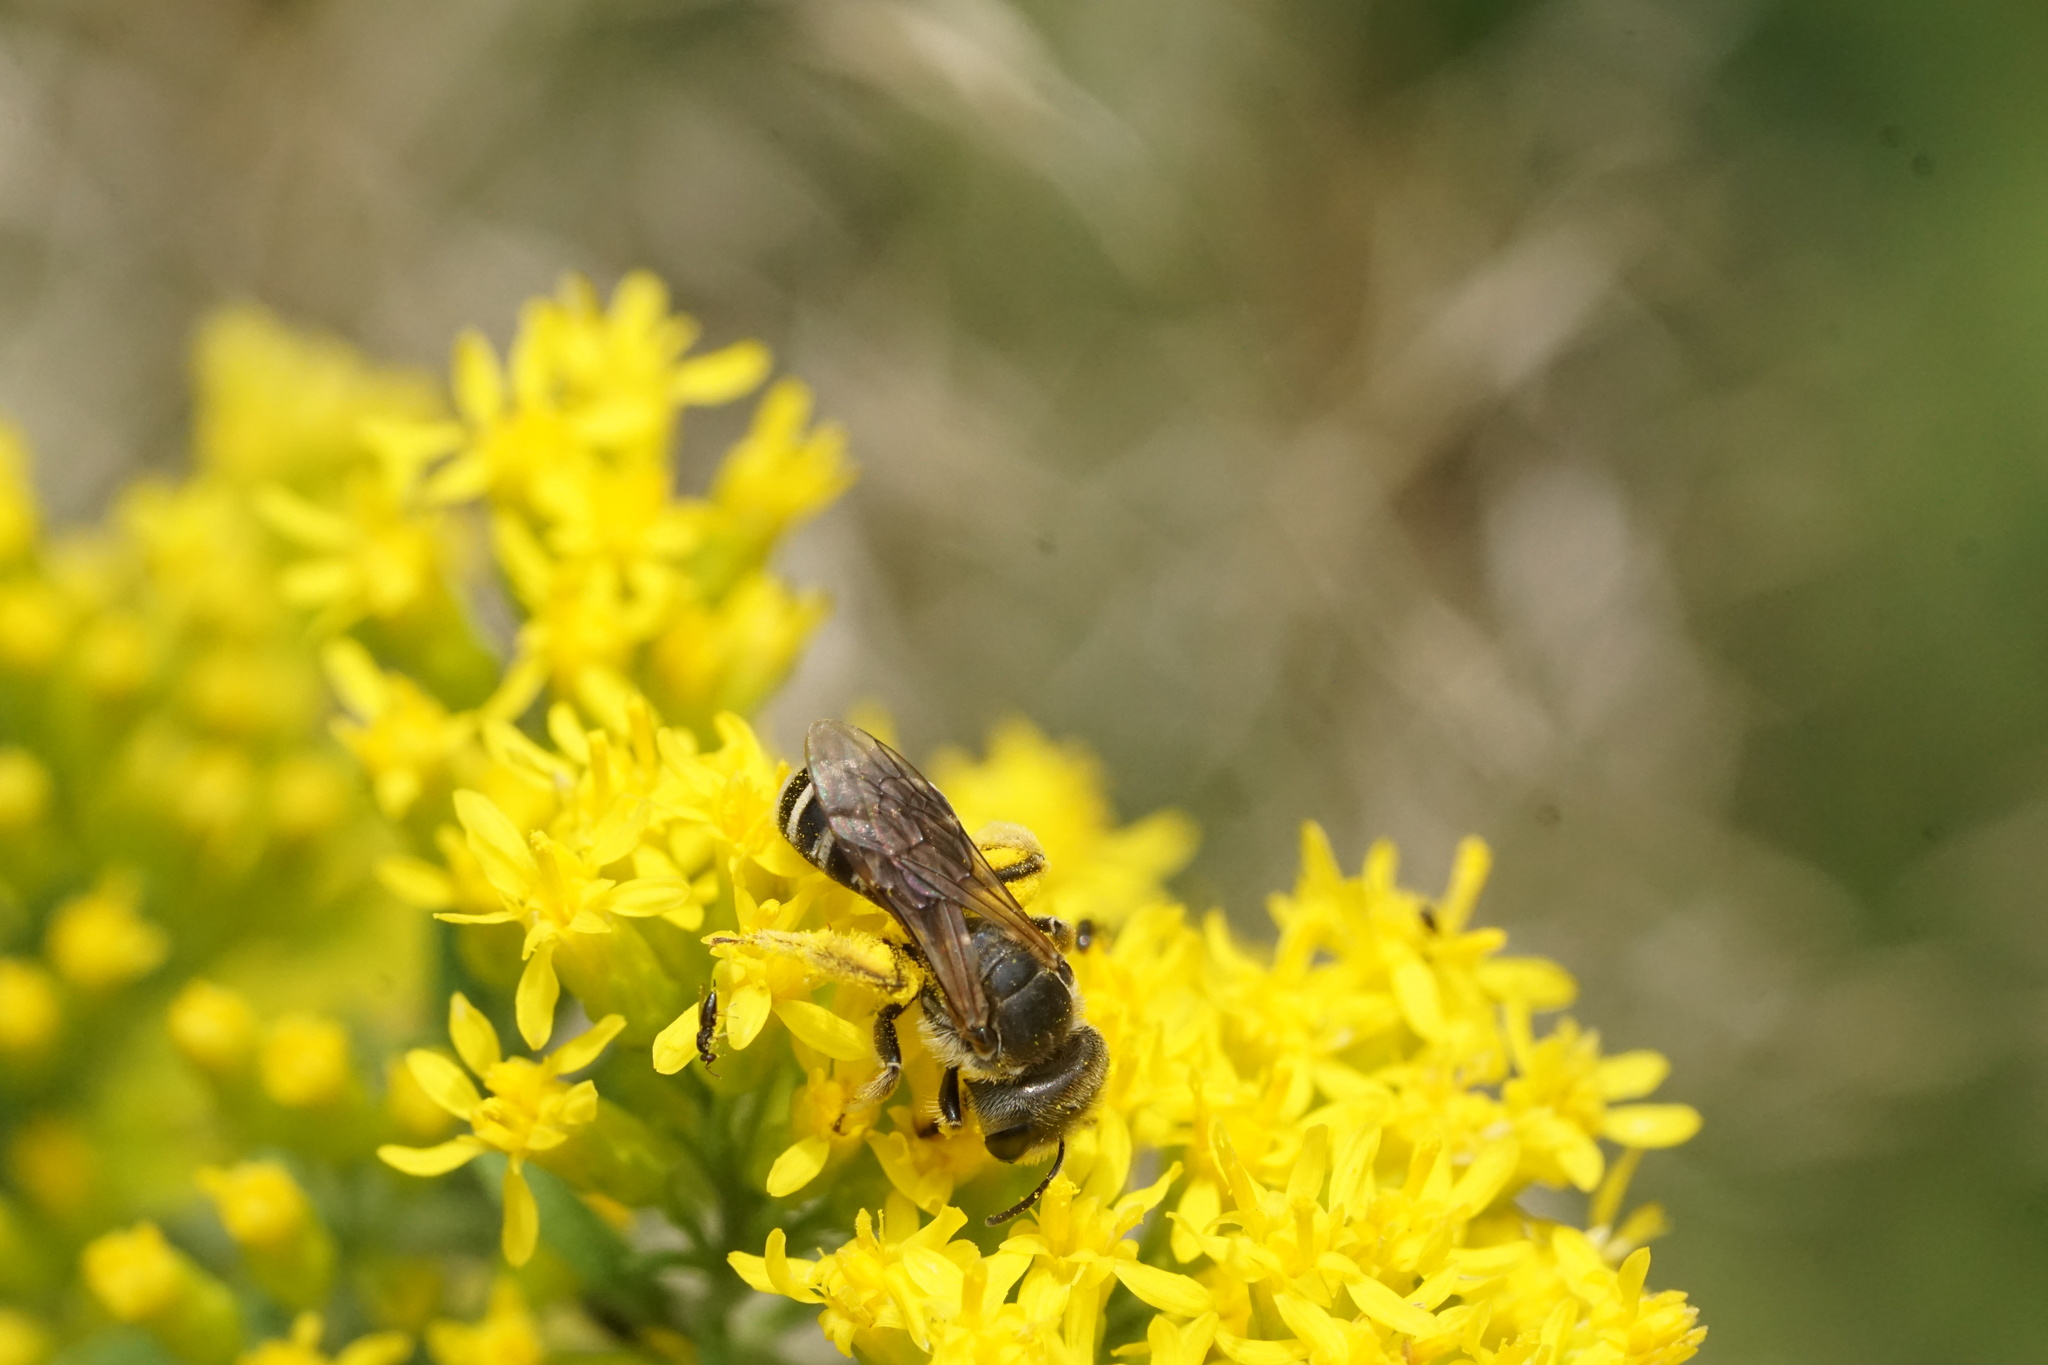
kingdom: Animalia
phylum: Arthropoda
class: Insecta
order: Hymenoptera
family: Halictidae
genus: Halictus
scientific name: Halictus ligatus
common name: Ligated furrow bee
